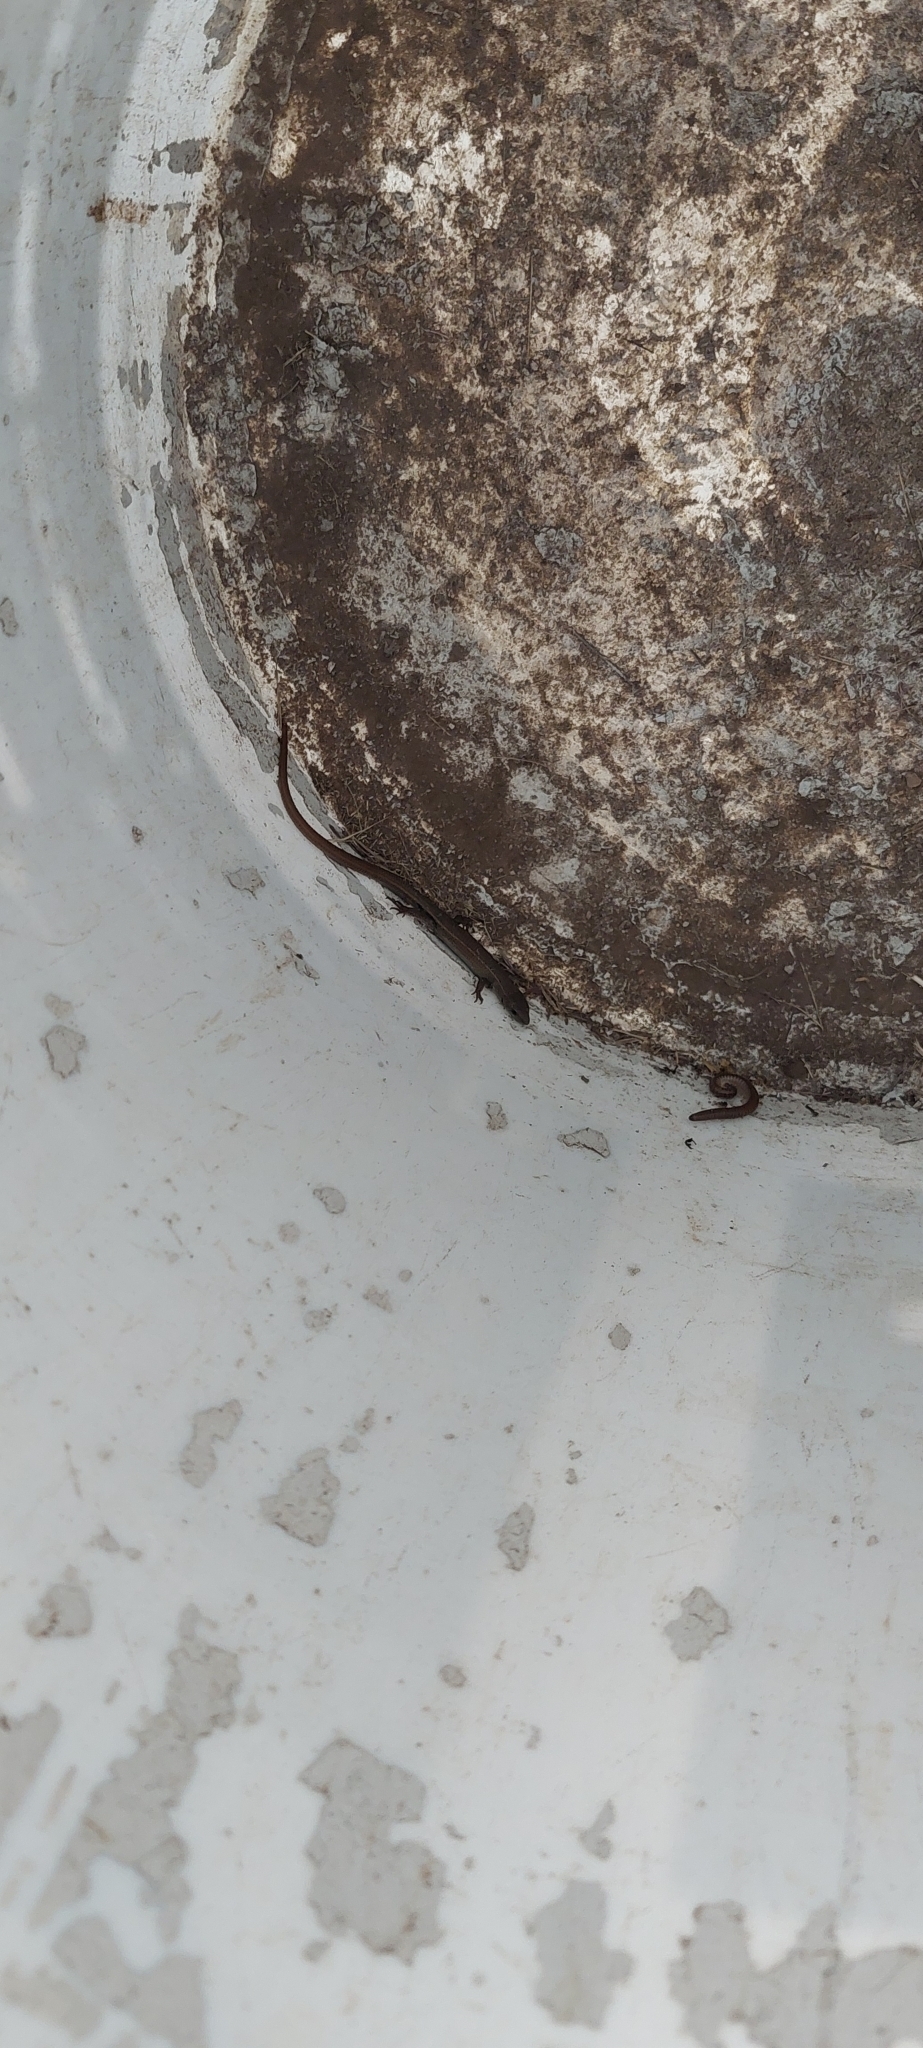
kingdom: Animalia
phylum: Chordata
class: Squamata
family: Gymnophthalmidae
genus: Cercosaura
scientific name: Cercosaura schreibersii
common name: Schreibers' many-fingered teiid
